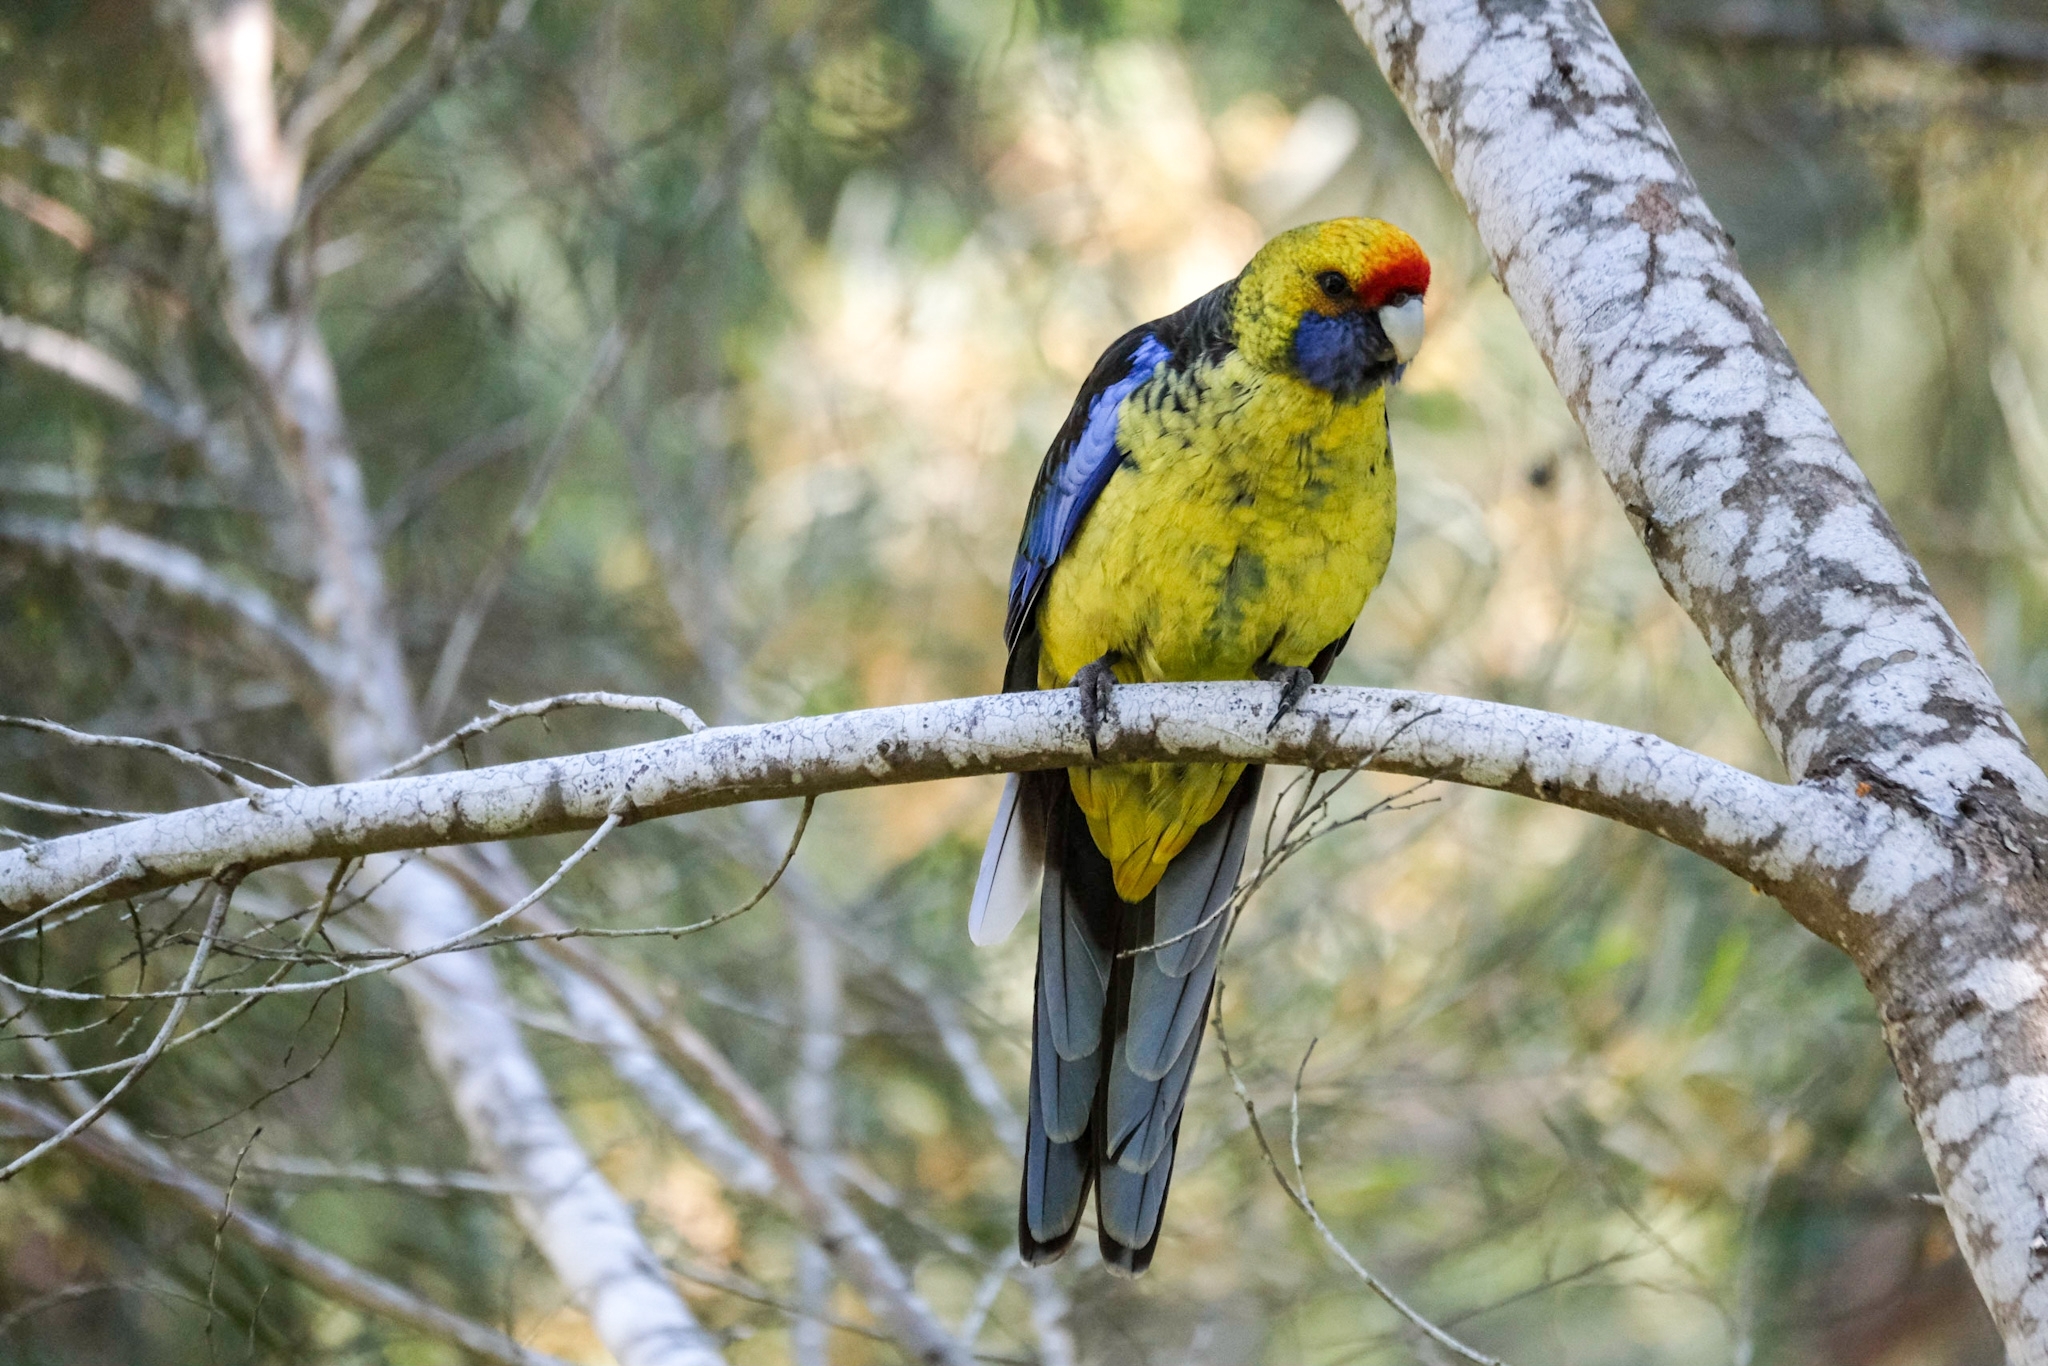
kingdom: Animalia
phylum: Chordata
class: Aves
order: Psittaciformes
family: Psittacidae
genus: Platycercus
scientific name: Platycercus caledonicus
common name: Green rosella
